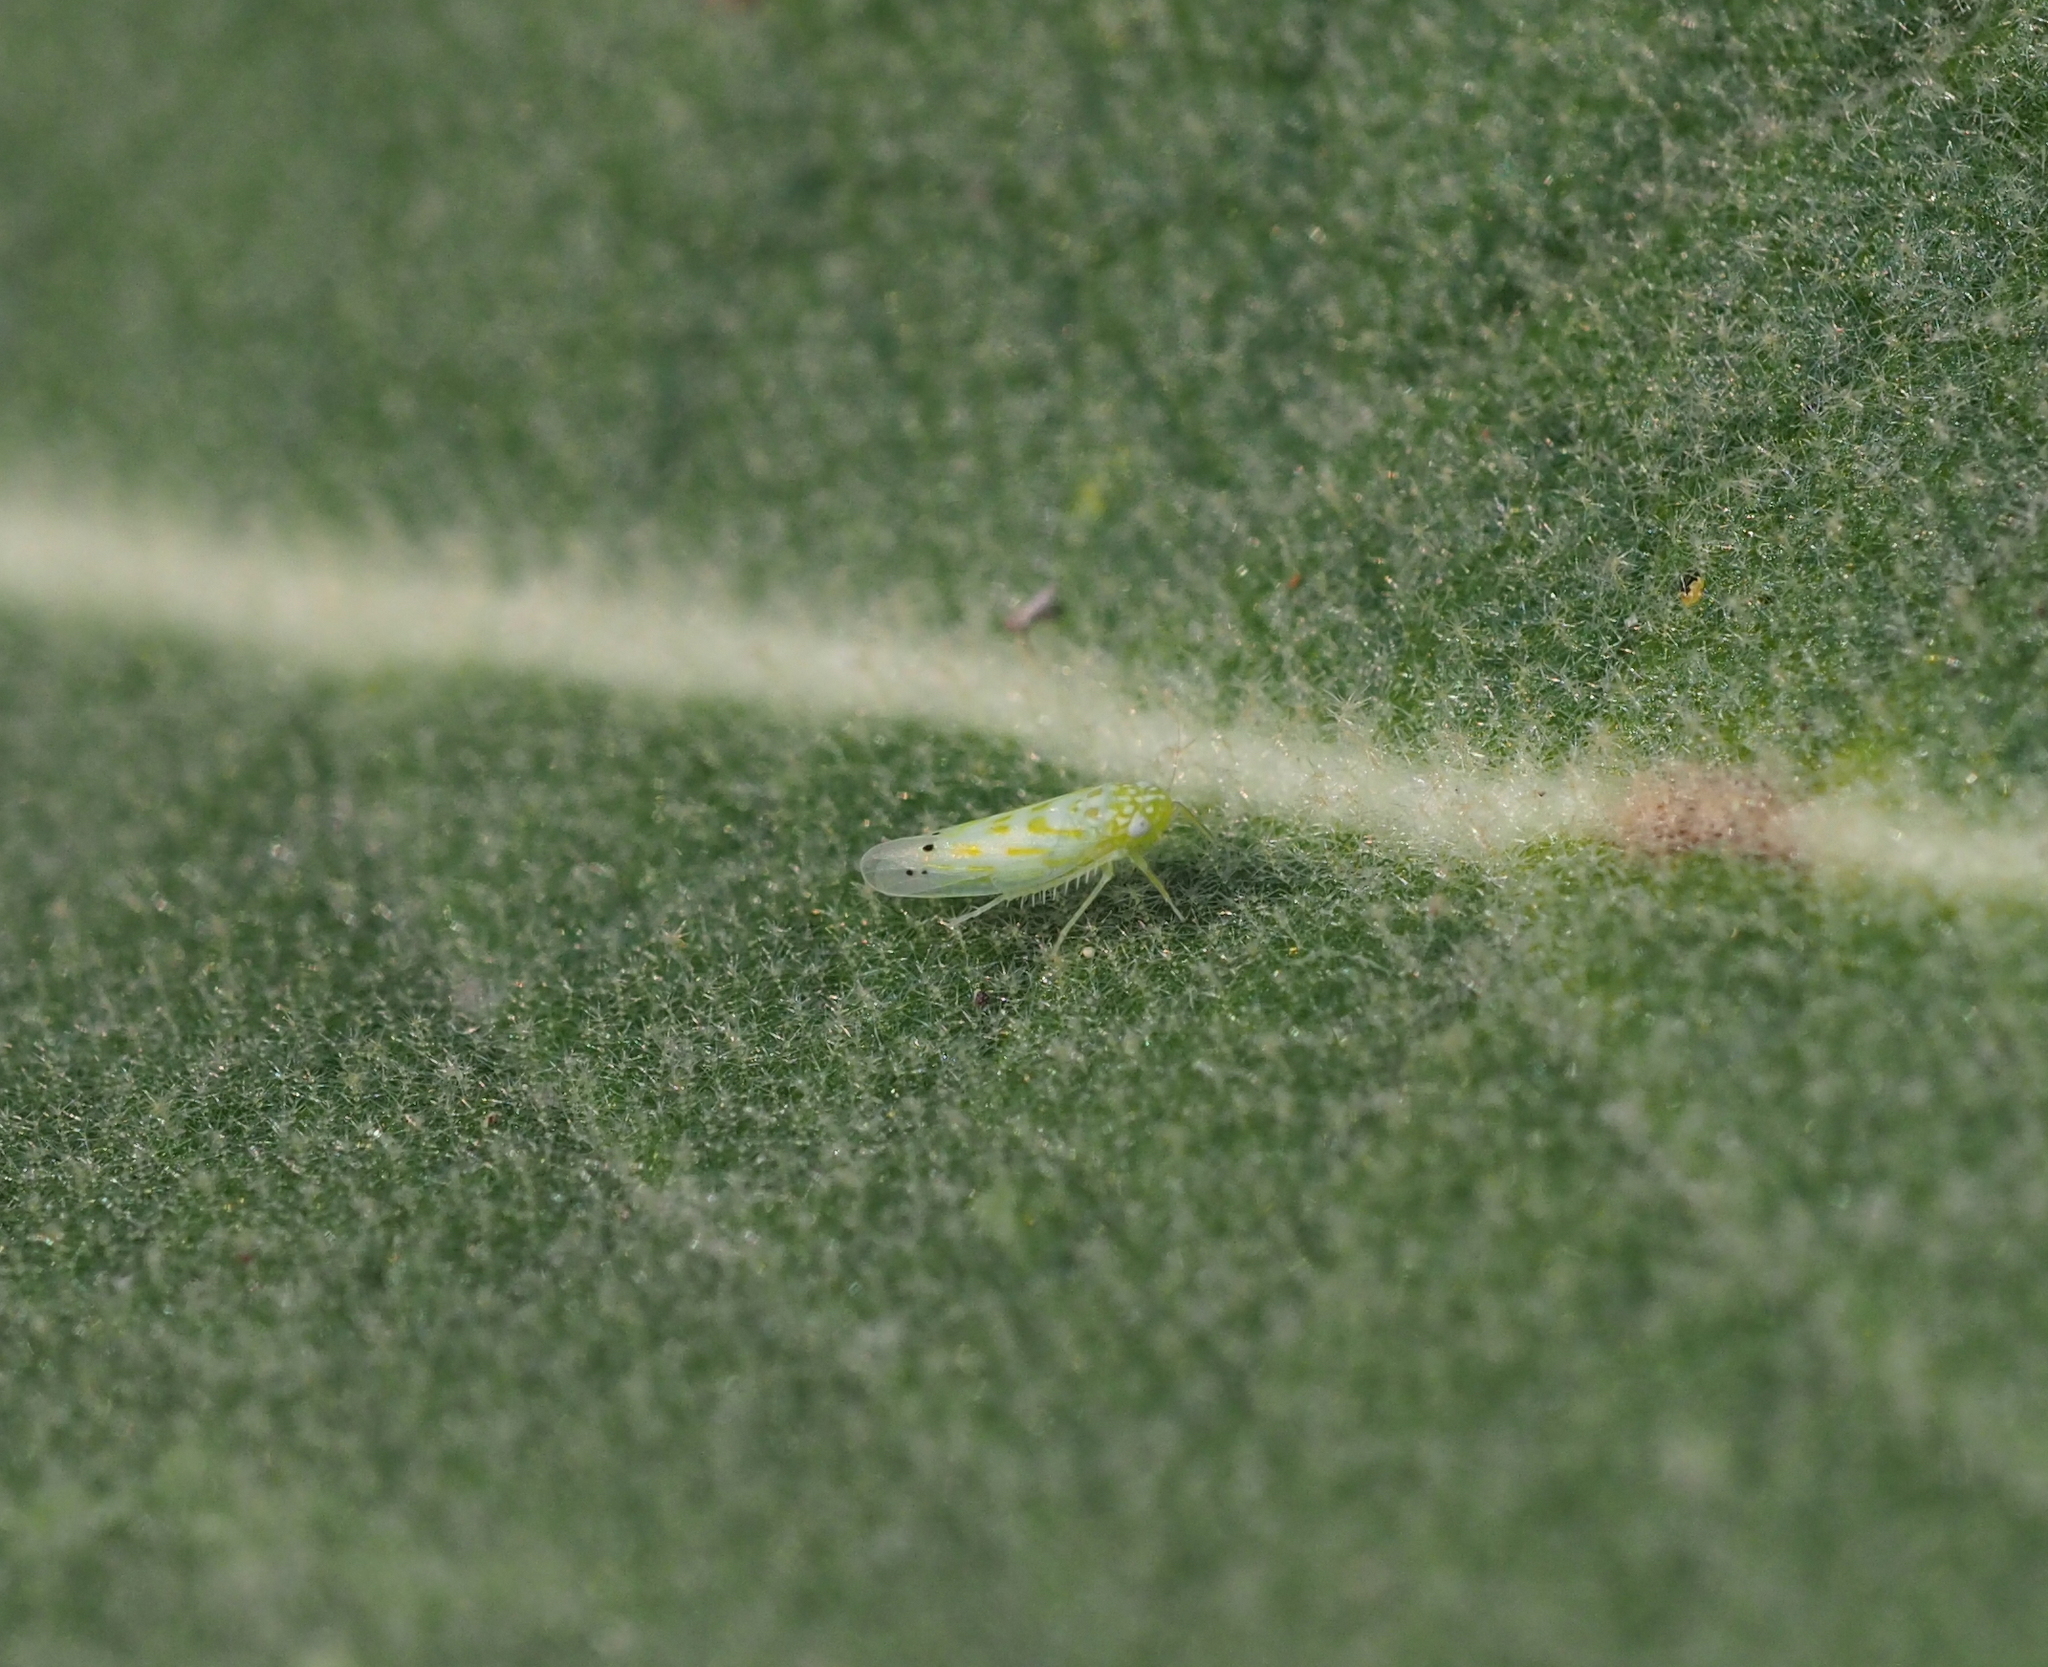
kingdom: Animalia
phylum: Arthropoda
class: Insecta
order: Hemiptera
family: Cicadellidae
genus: Micantulina
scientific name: Micantulina stigmatipennis
